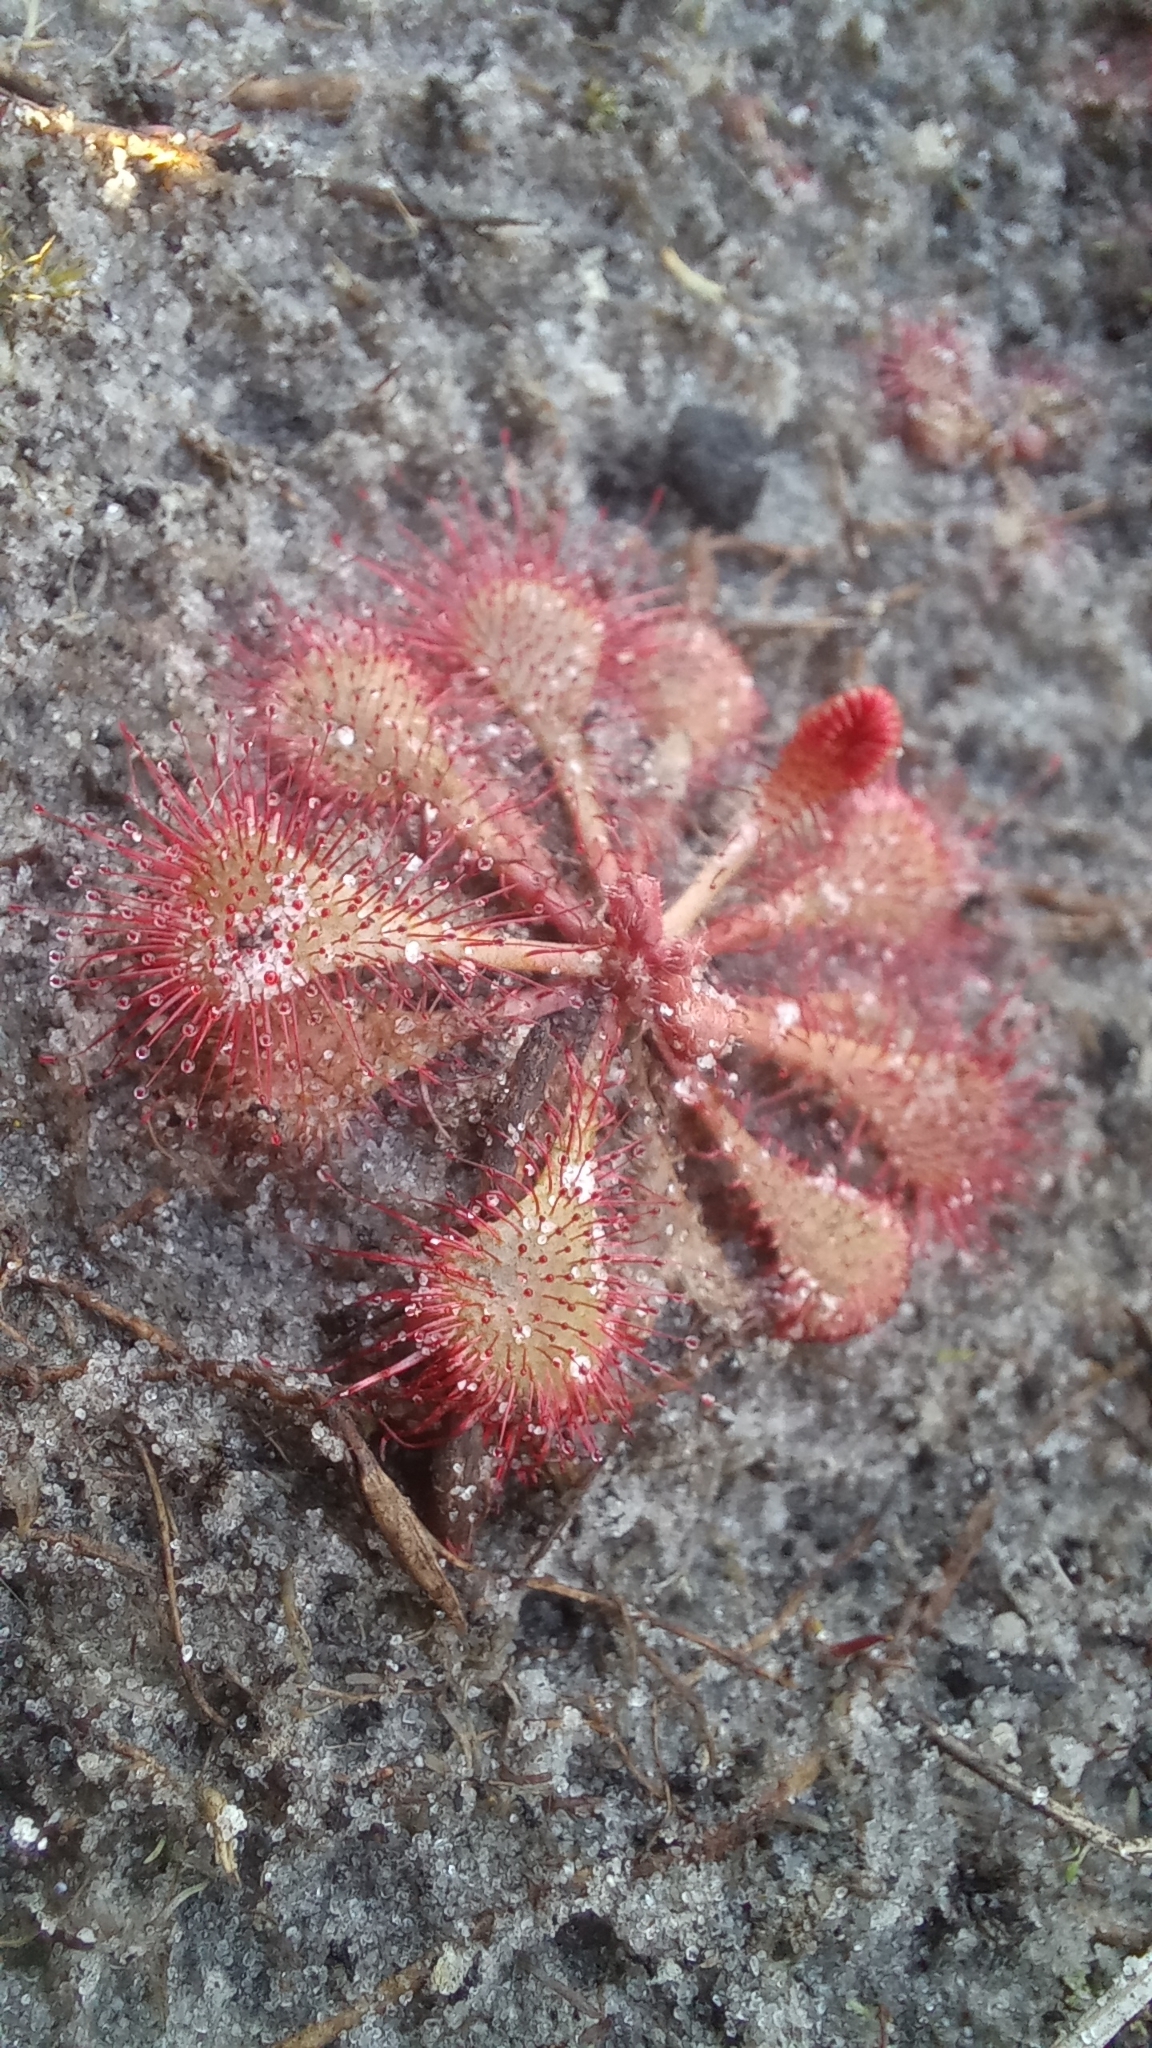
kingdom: Plantae
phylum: Tracheophyta
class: Magnoliopsida
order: Caryophyllales
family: Droseraceae
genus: Drosera
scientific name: Drosera brevifolia
